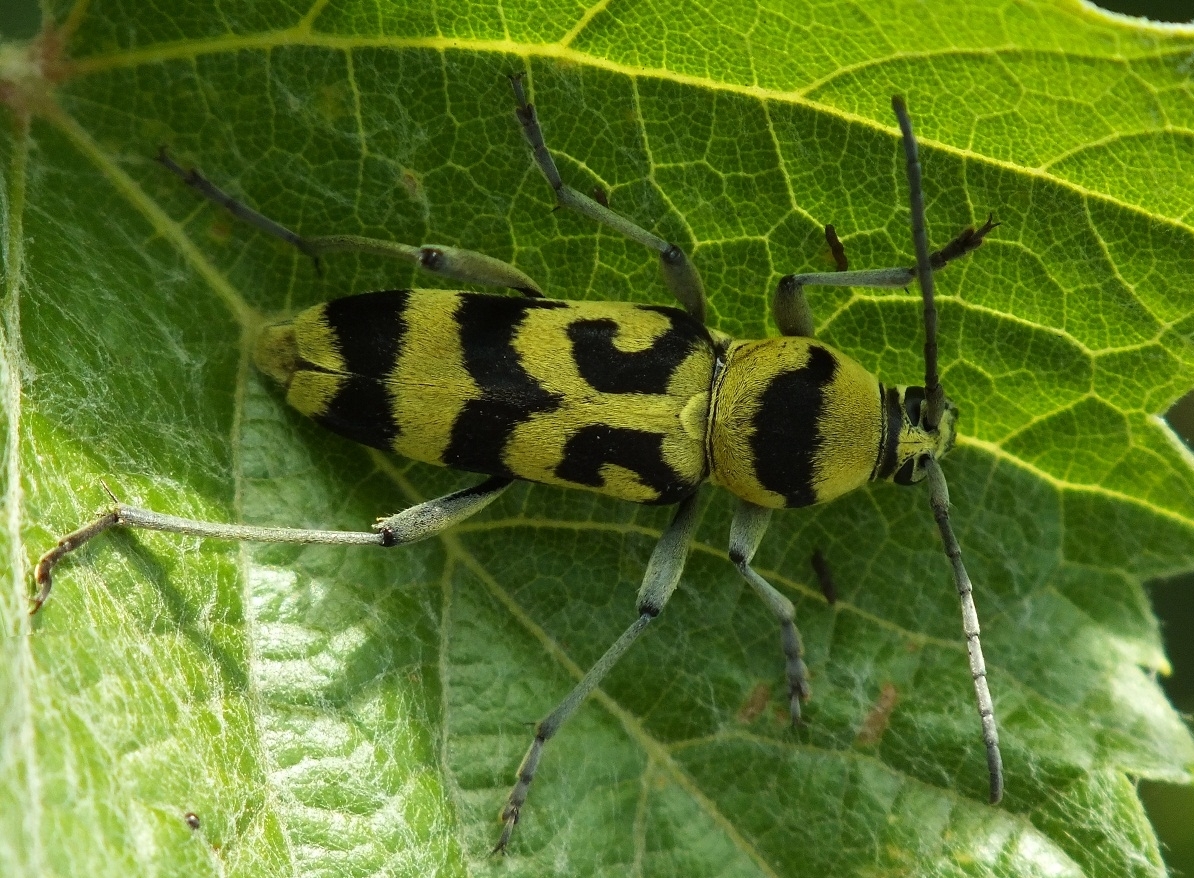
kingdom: Animalia
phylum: Arthropoda
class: Insecta
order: Coleoptera
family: Cerambycidae
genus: Chlorophorus
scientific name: Chlorophorus varius
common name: Grape wood borer
